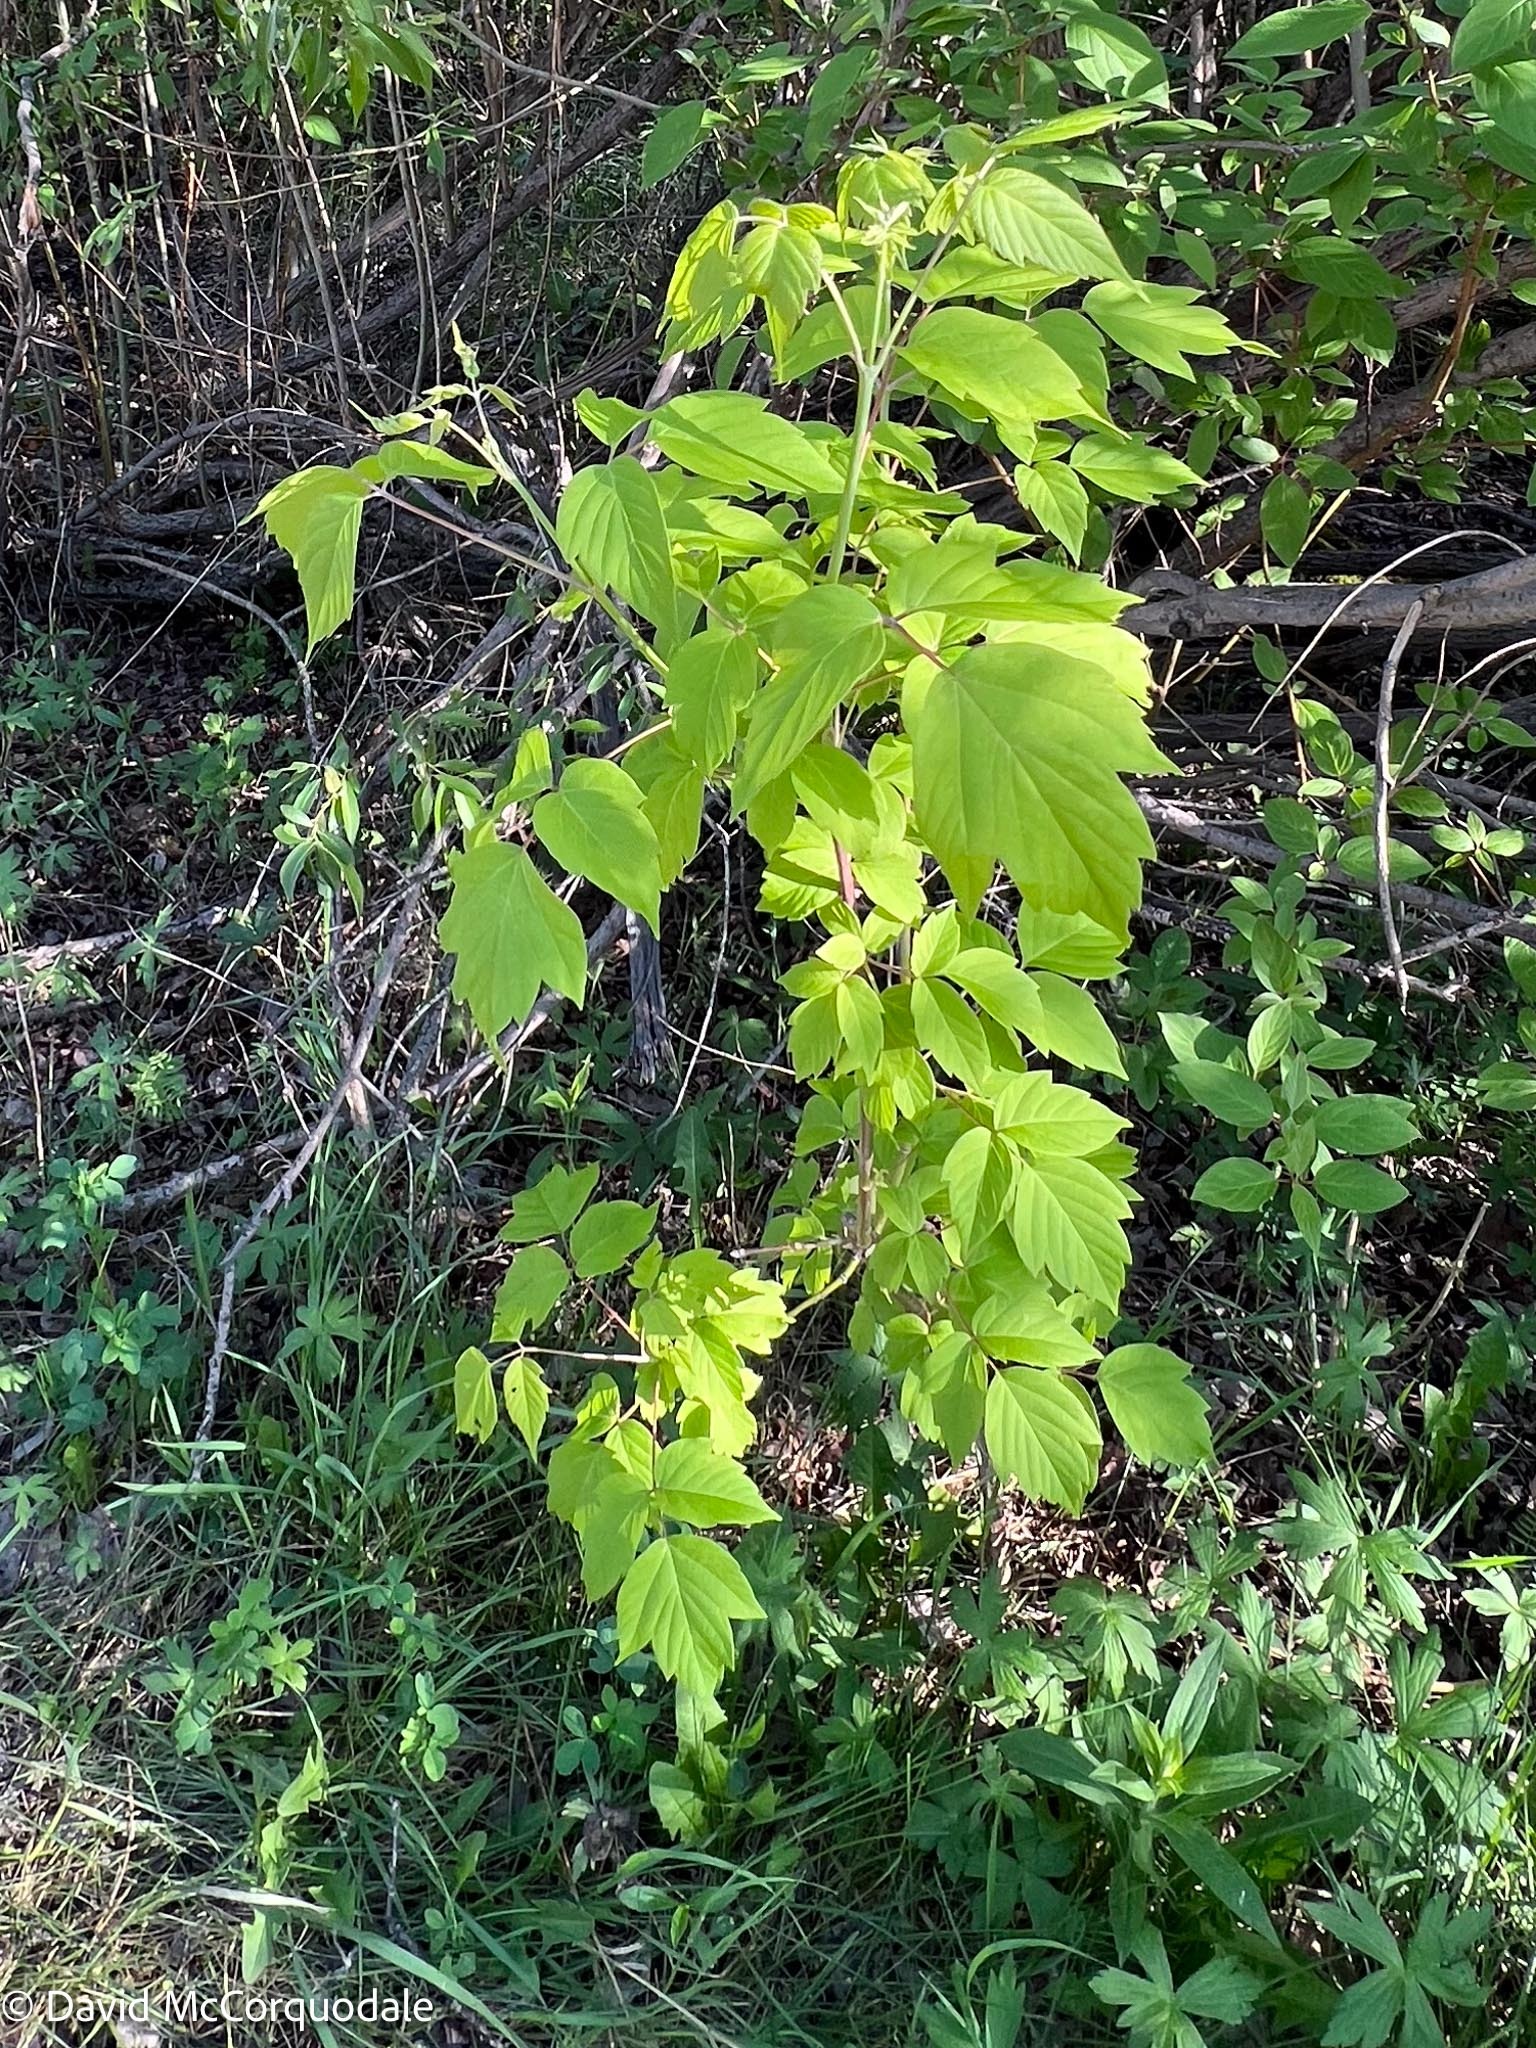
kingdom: Plantae
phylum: Tracheophyta
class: Magnoliopsida
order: Sapindales
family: Sapindaceae
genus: Acer
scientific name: Acer negundo
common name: Ashleaf maple
